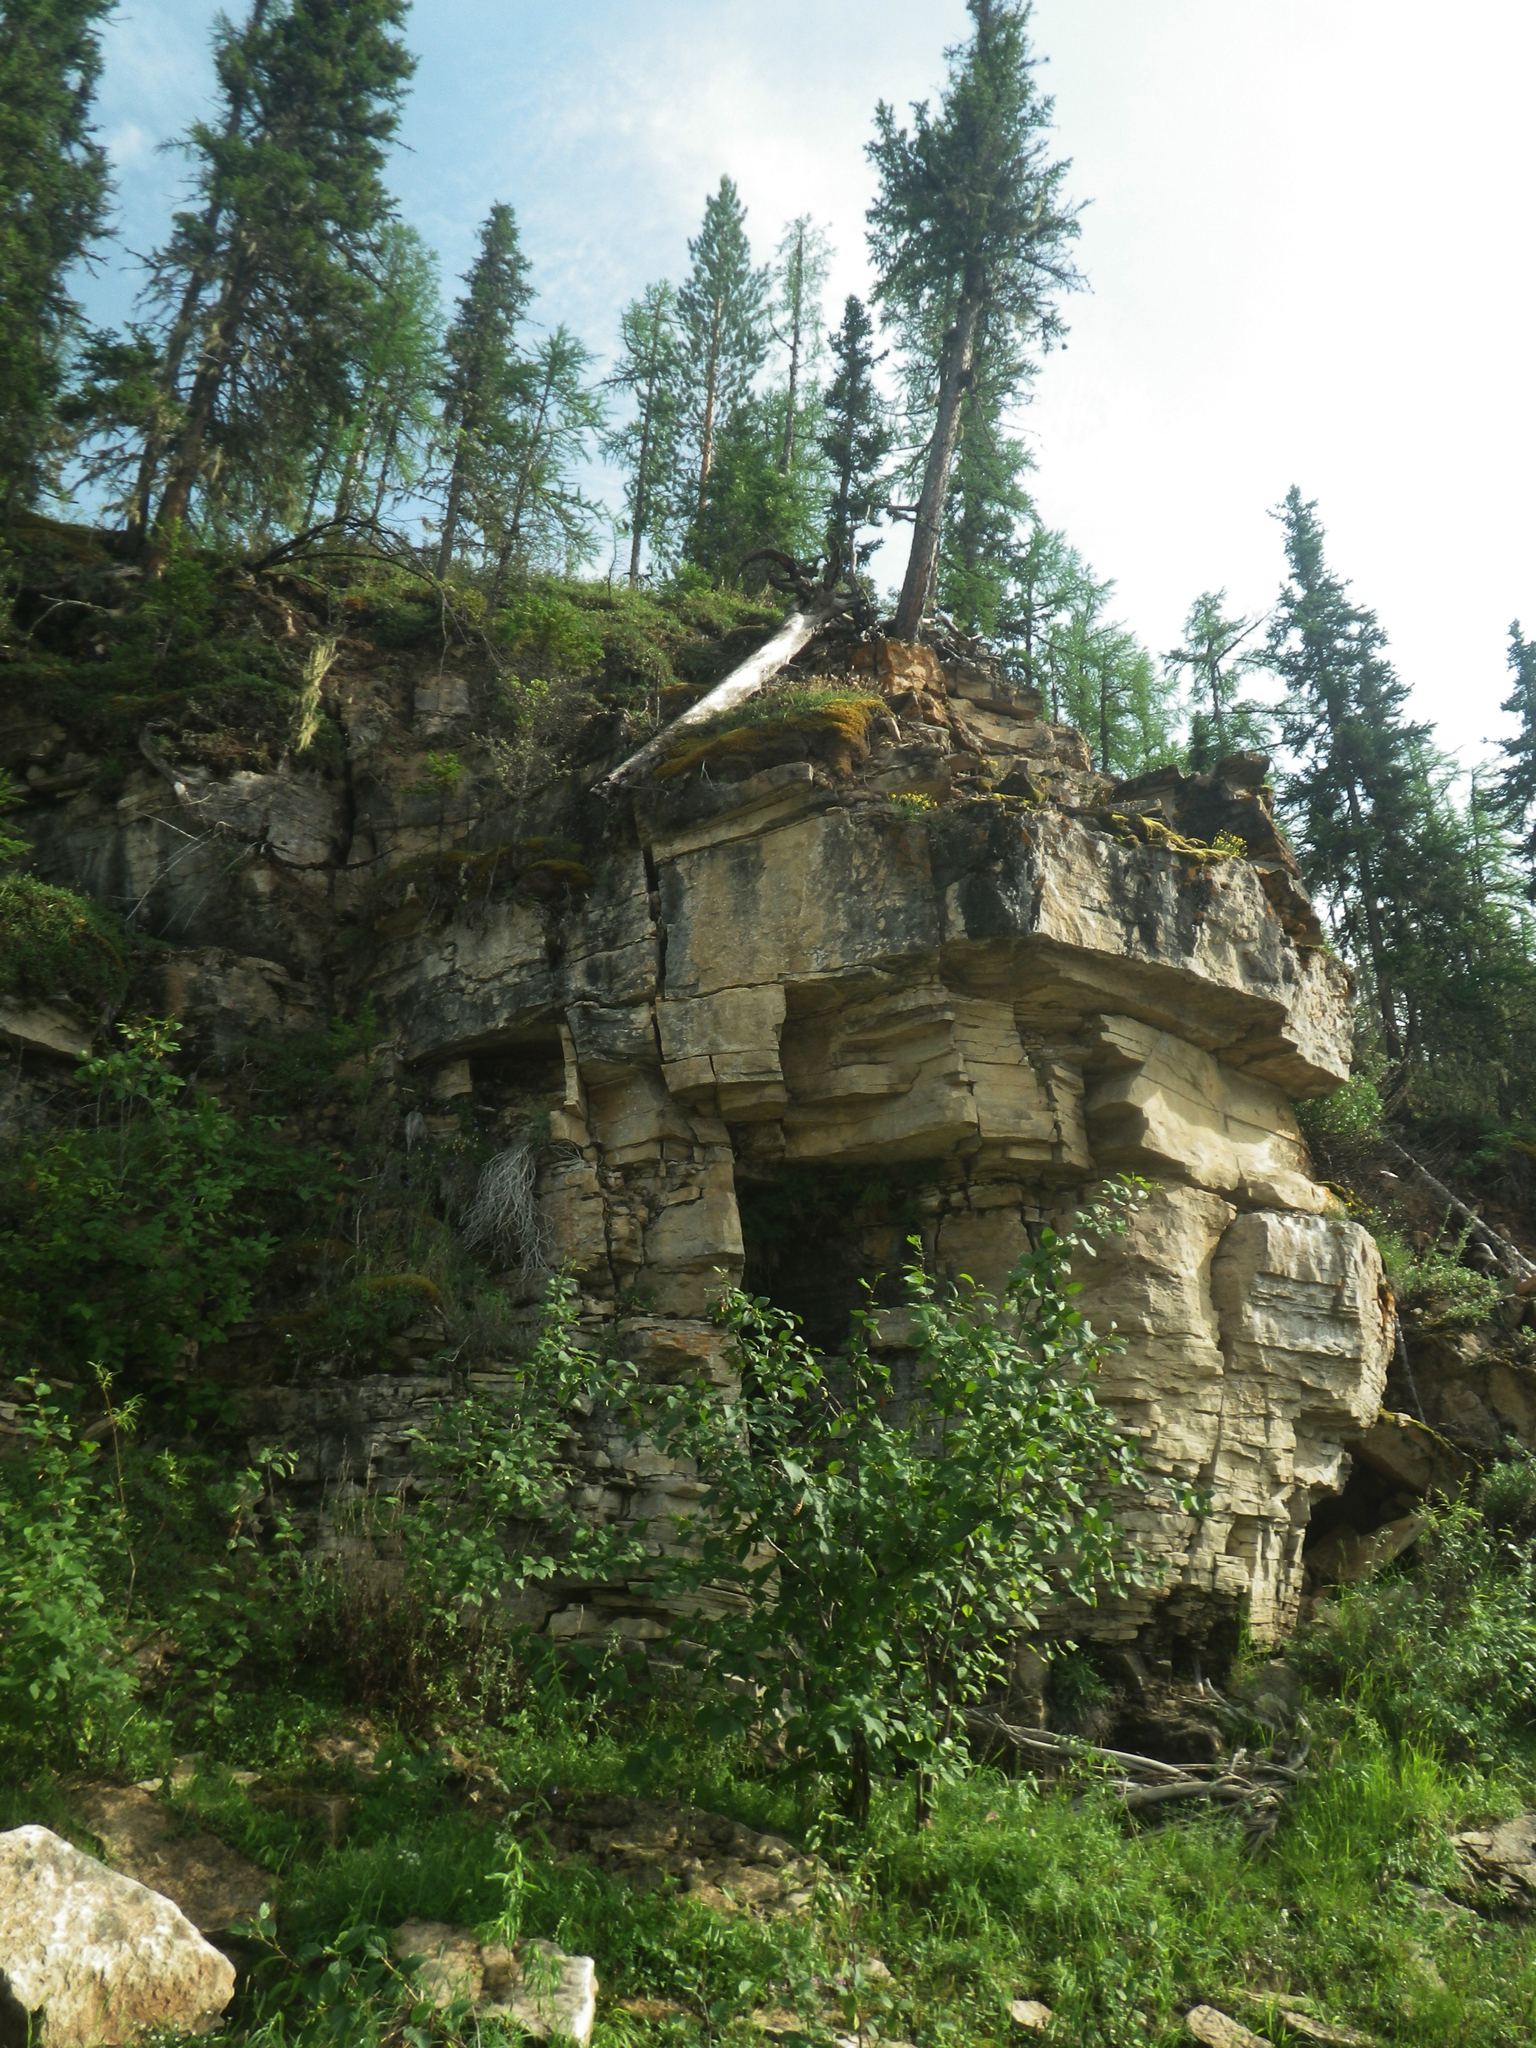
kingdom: Plantae
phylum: Tracheophyta
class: Pinopsida
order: Pinales
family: Pinaceae
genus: Larix
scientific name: Larix gmelinii
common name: Dahurian larch
